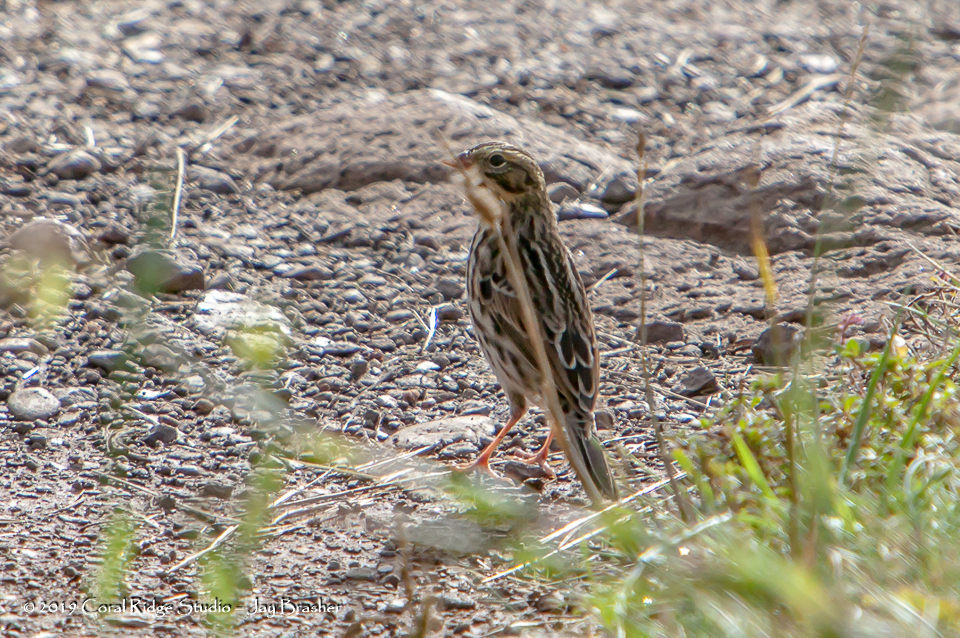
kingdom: Animalia
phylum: Chordata
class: Aves
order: Passeriformes
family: Passerellidae
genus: Pooecetes
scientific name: Pooecetes gramineus
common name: Vesper sparrow
